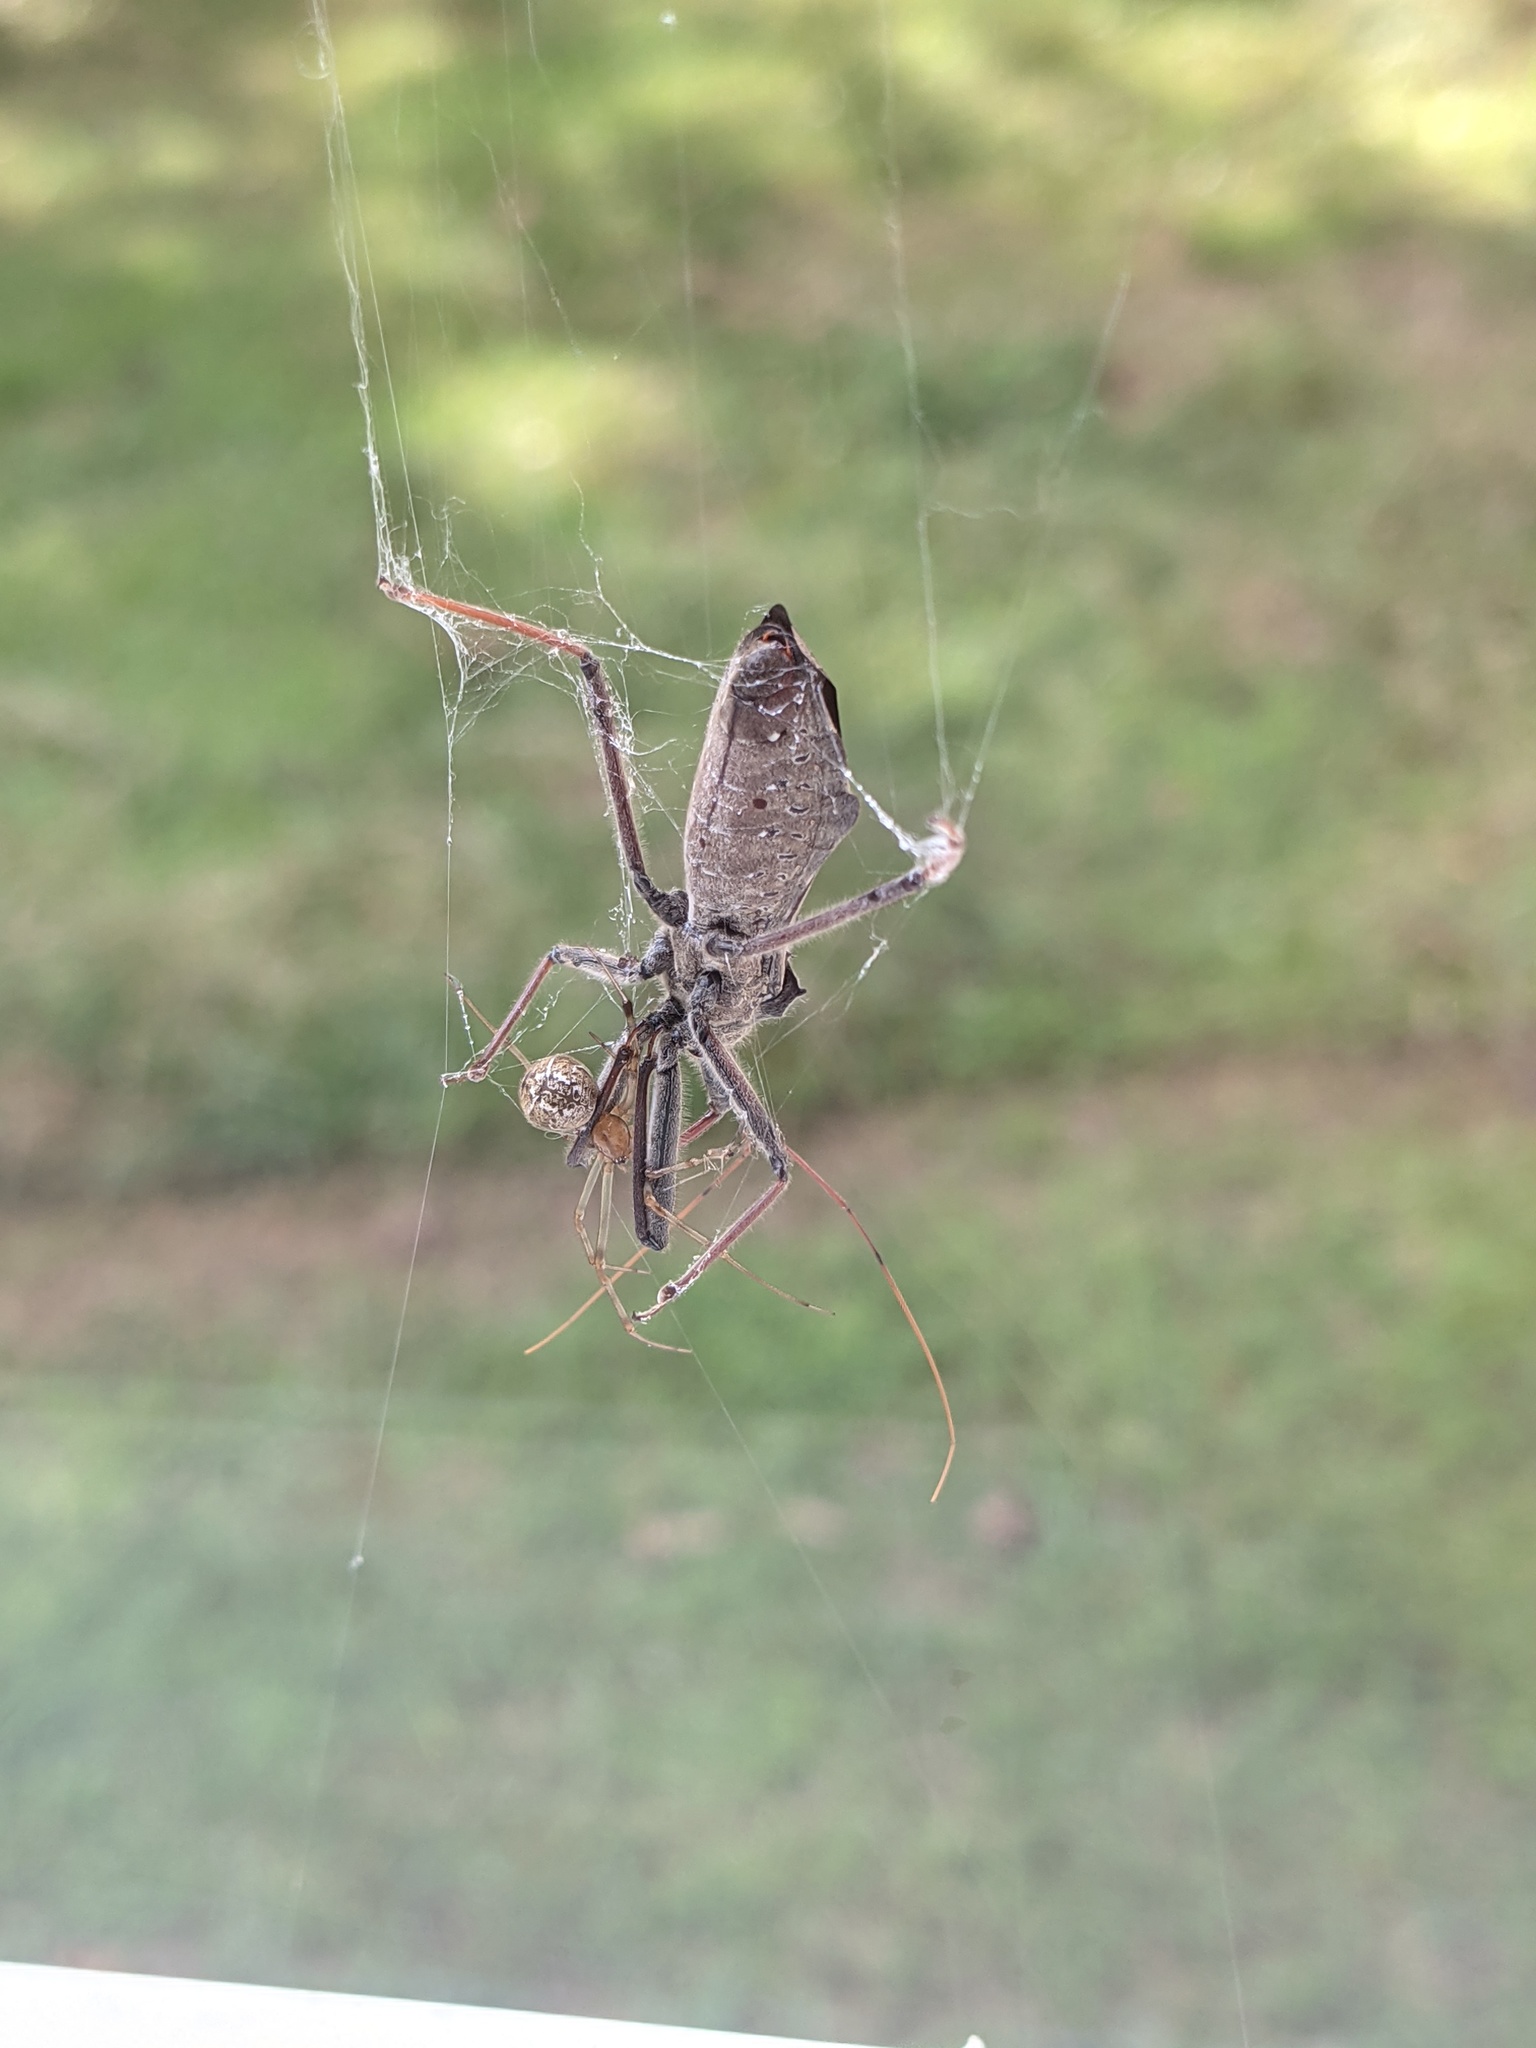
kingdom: Animalia
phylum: Arthropoda
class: Insecta
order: Hemiptera
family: Reduviidae
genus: Arilus
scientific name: Arilus cristatus
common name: North american wheel bug
